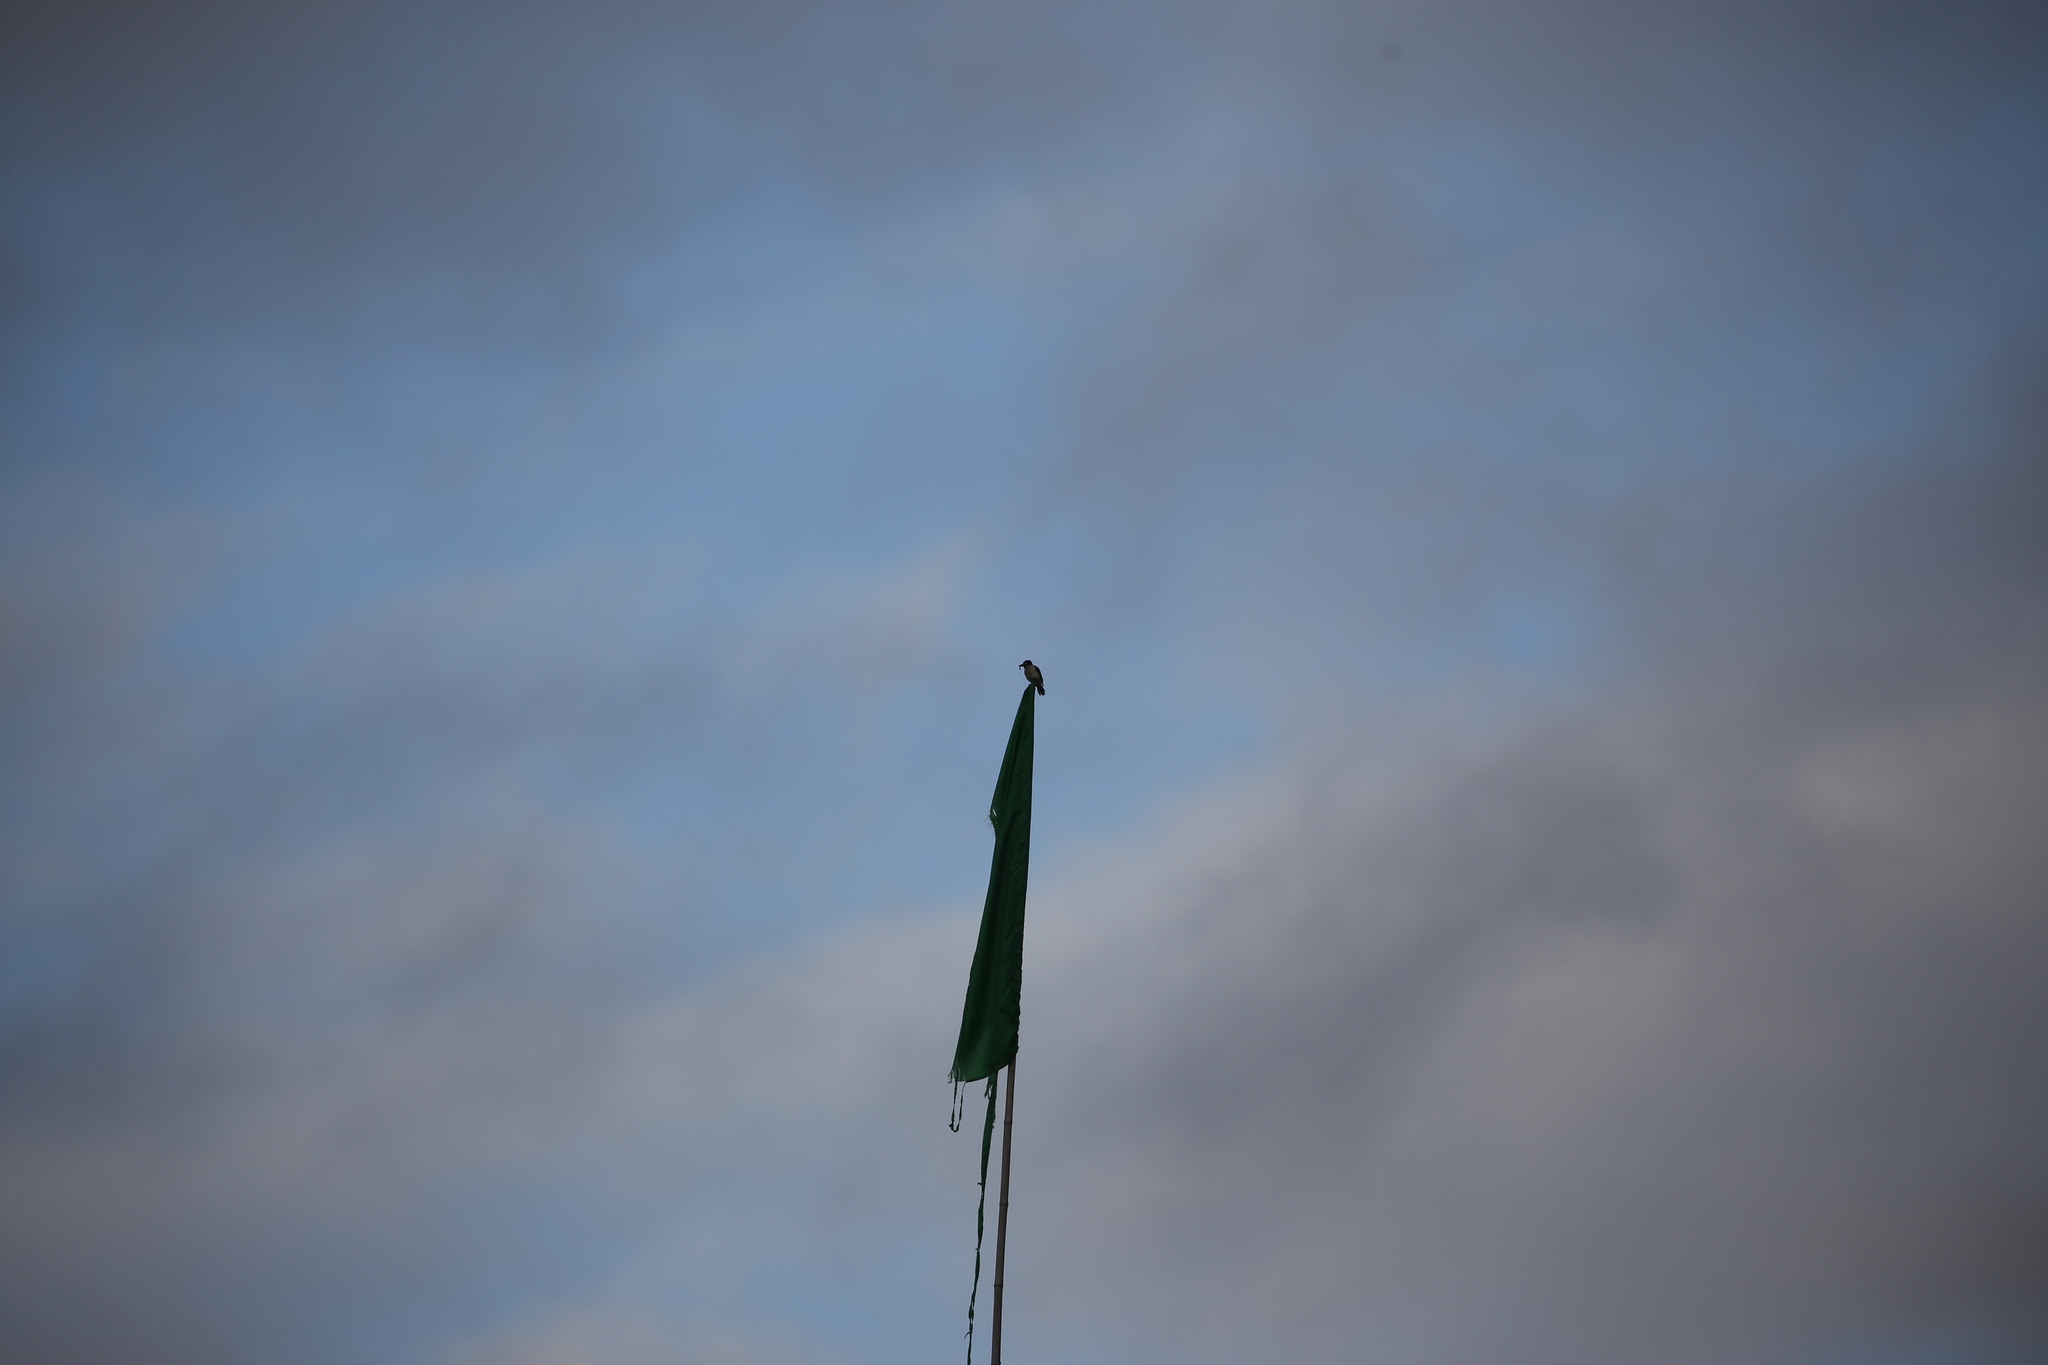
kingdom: Animalia
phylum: Chordata
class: Aves
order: Coraciiformes
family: Alcedinidae
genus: Todiramphus
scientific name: Todiramphus macleayii
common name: Forest kingfisher
